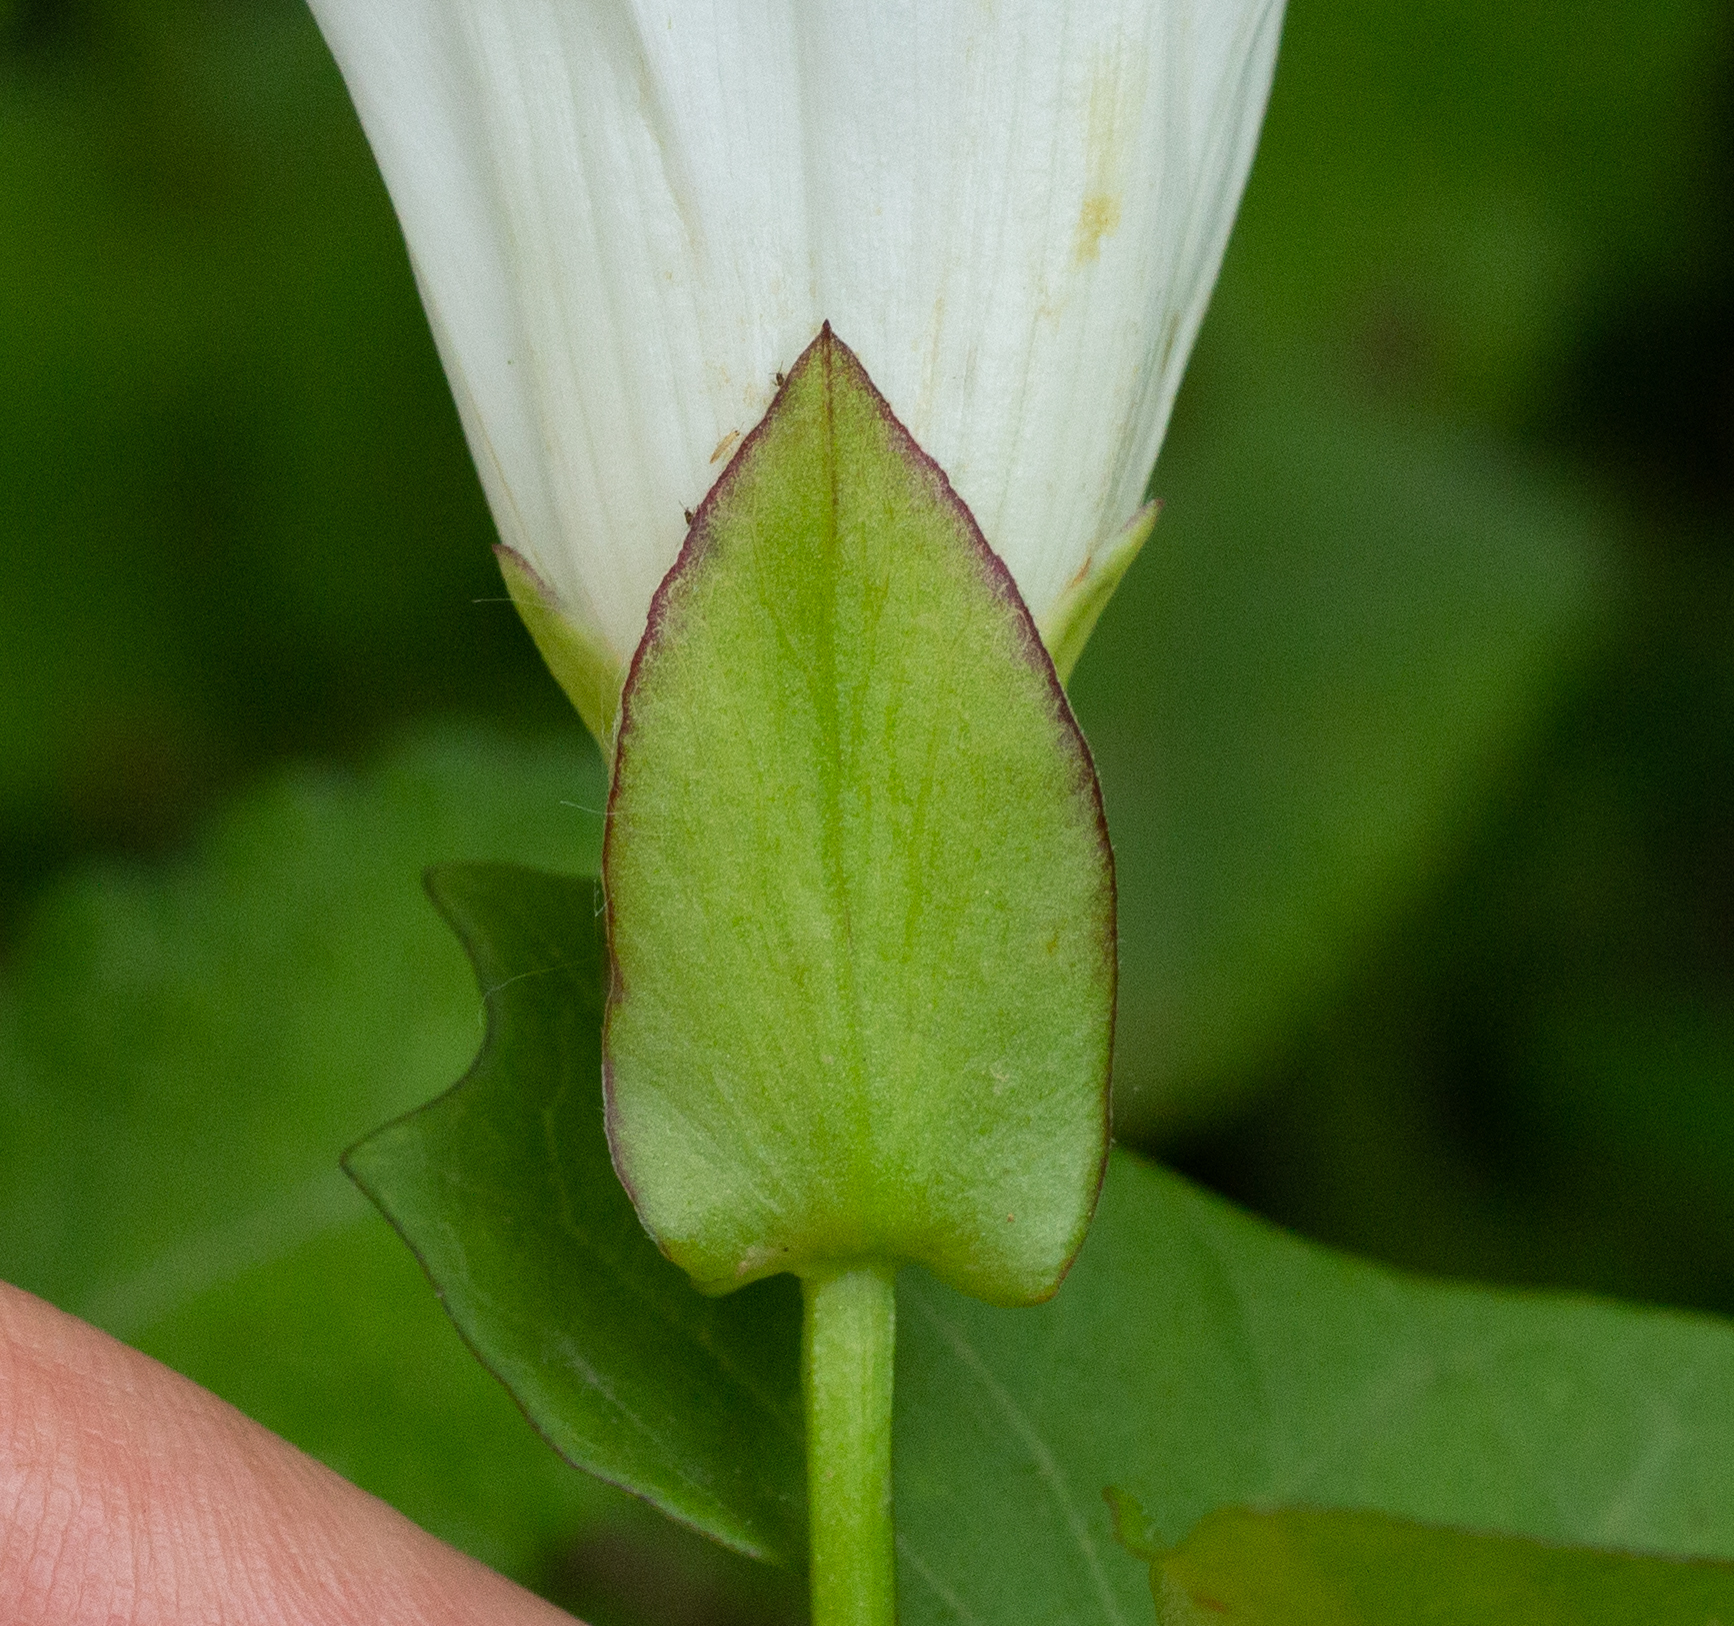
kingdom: Plantae
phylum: Tracheophyta
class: Magnoliopsida
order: Solanales
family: Convolvulaceae
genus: Calystegia
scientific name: Calystegia sepium
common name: Hedge bindweed
